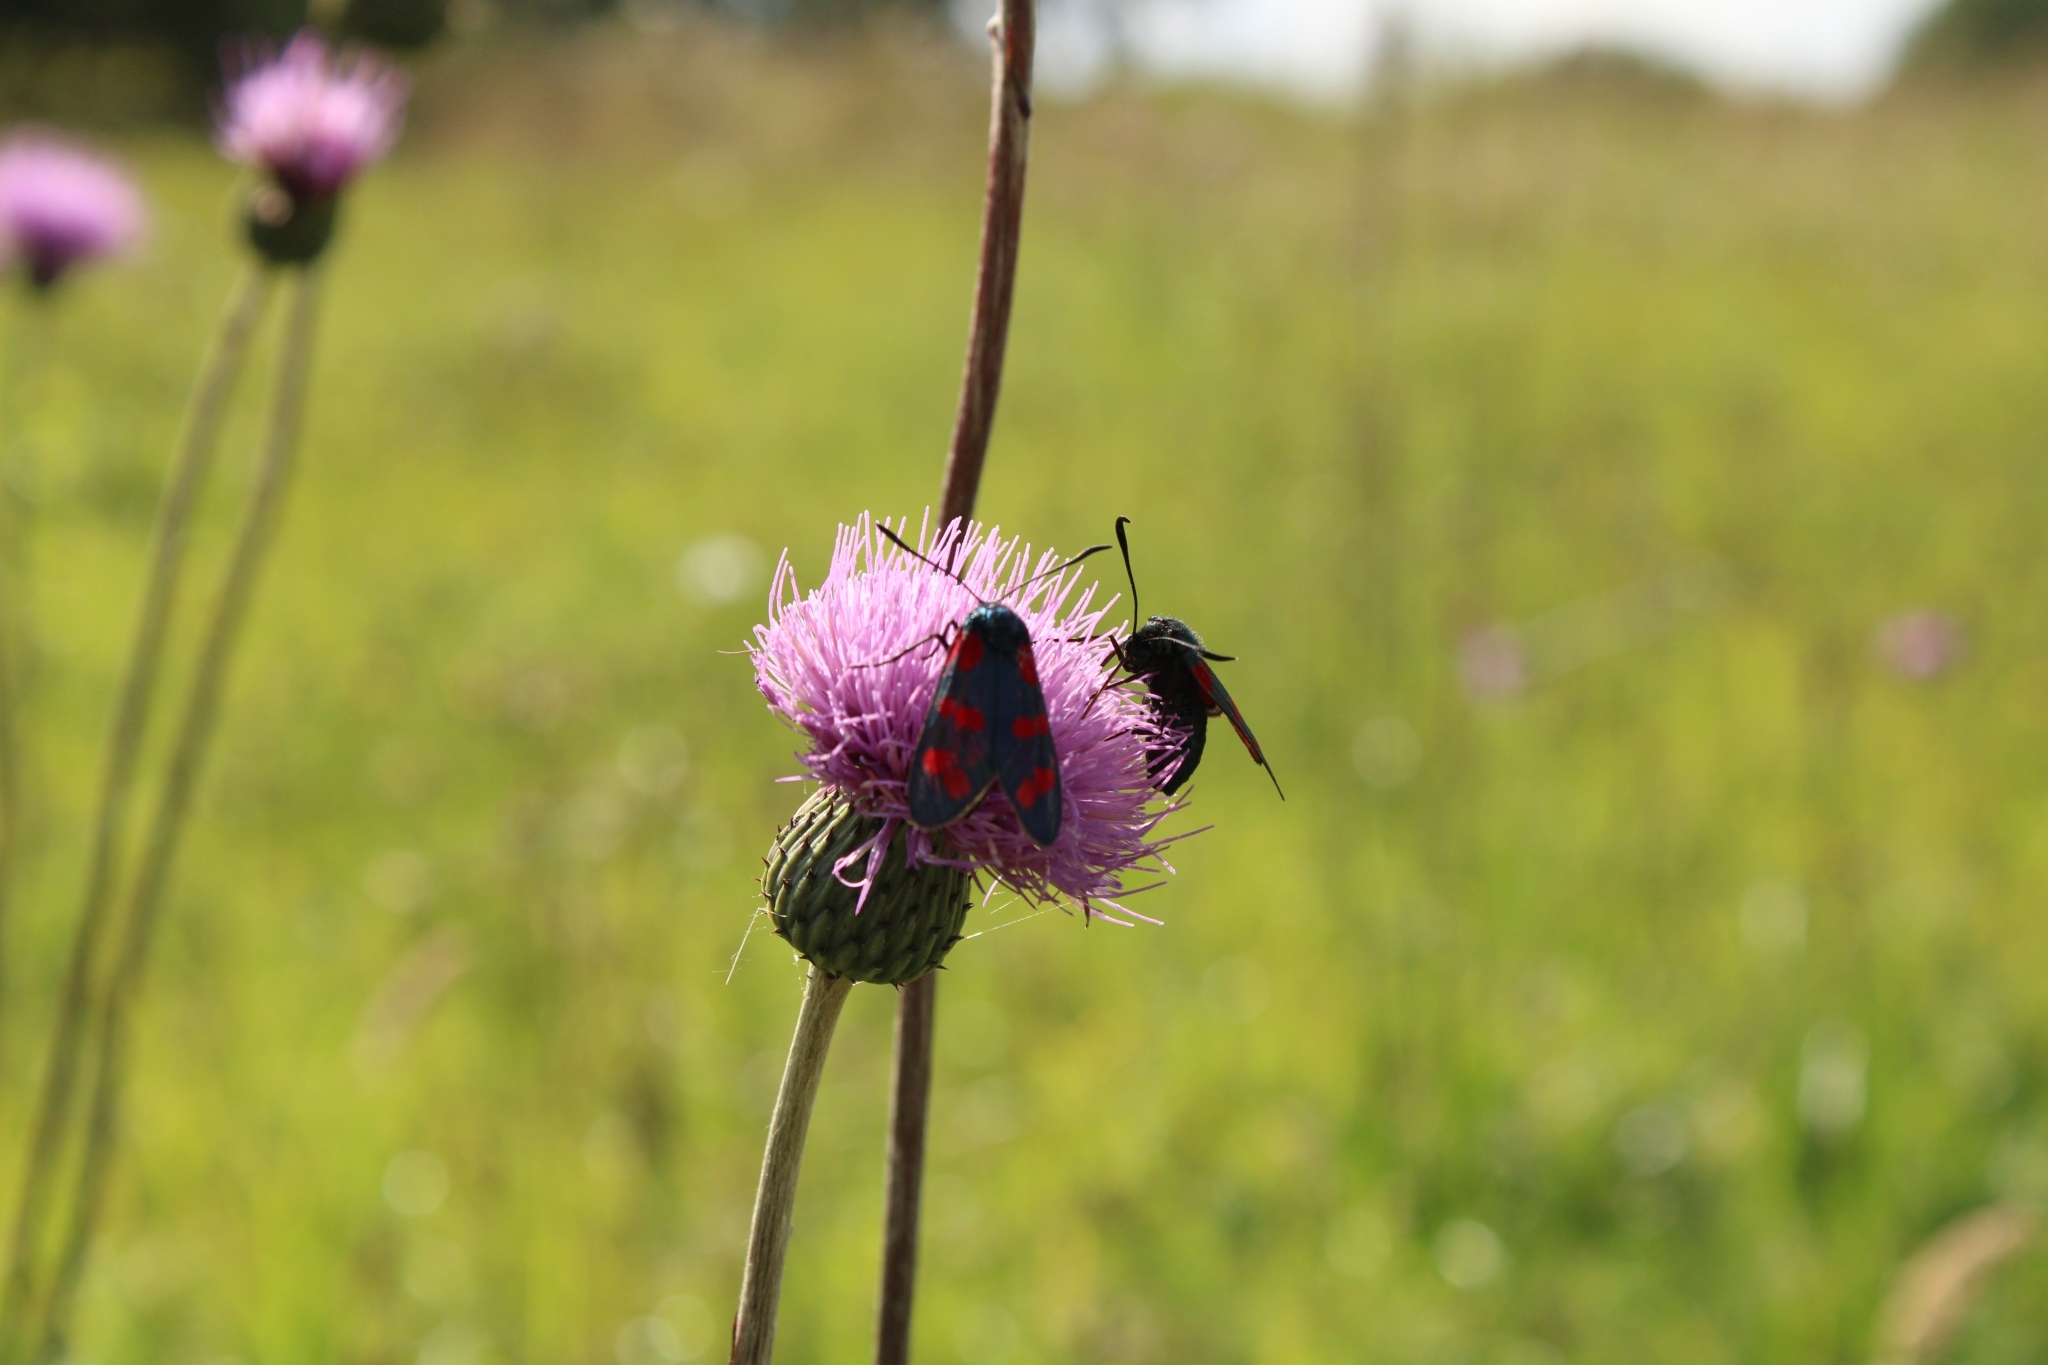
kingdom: Animalia
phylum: Arthropoda
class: Insecta
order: Lepidoptera
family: Zygaenidae
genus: Zygaena
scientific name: Zygaena filipendulae
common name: Six-spot burnet
